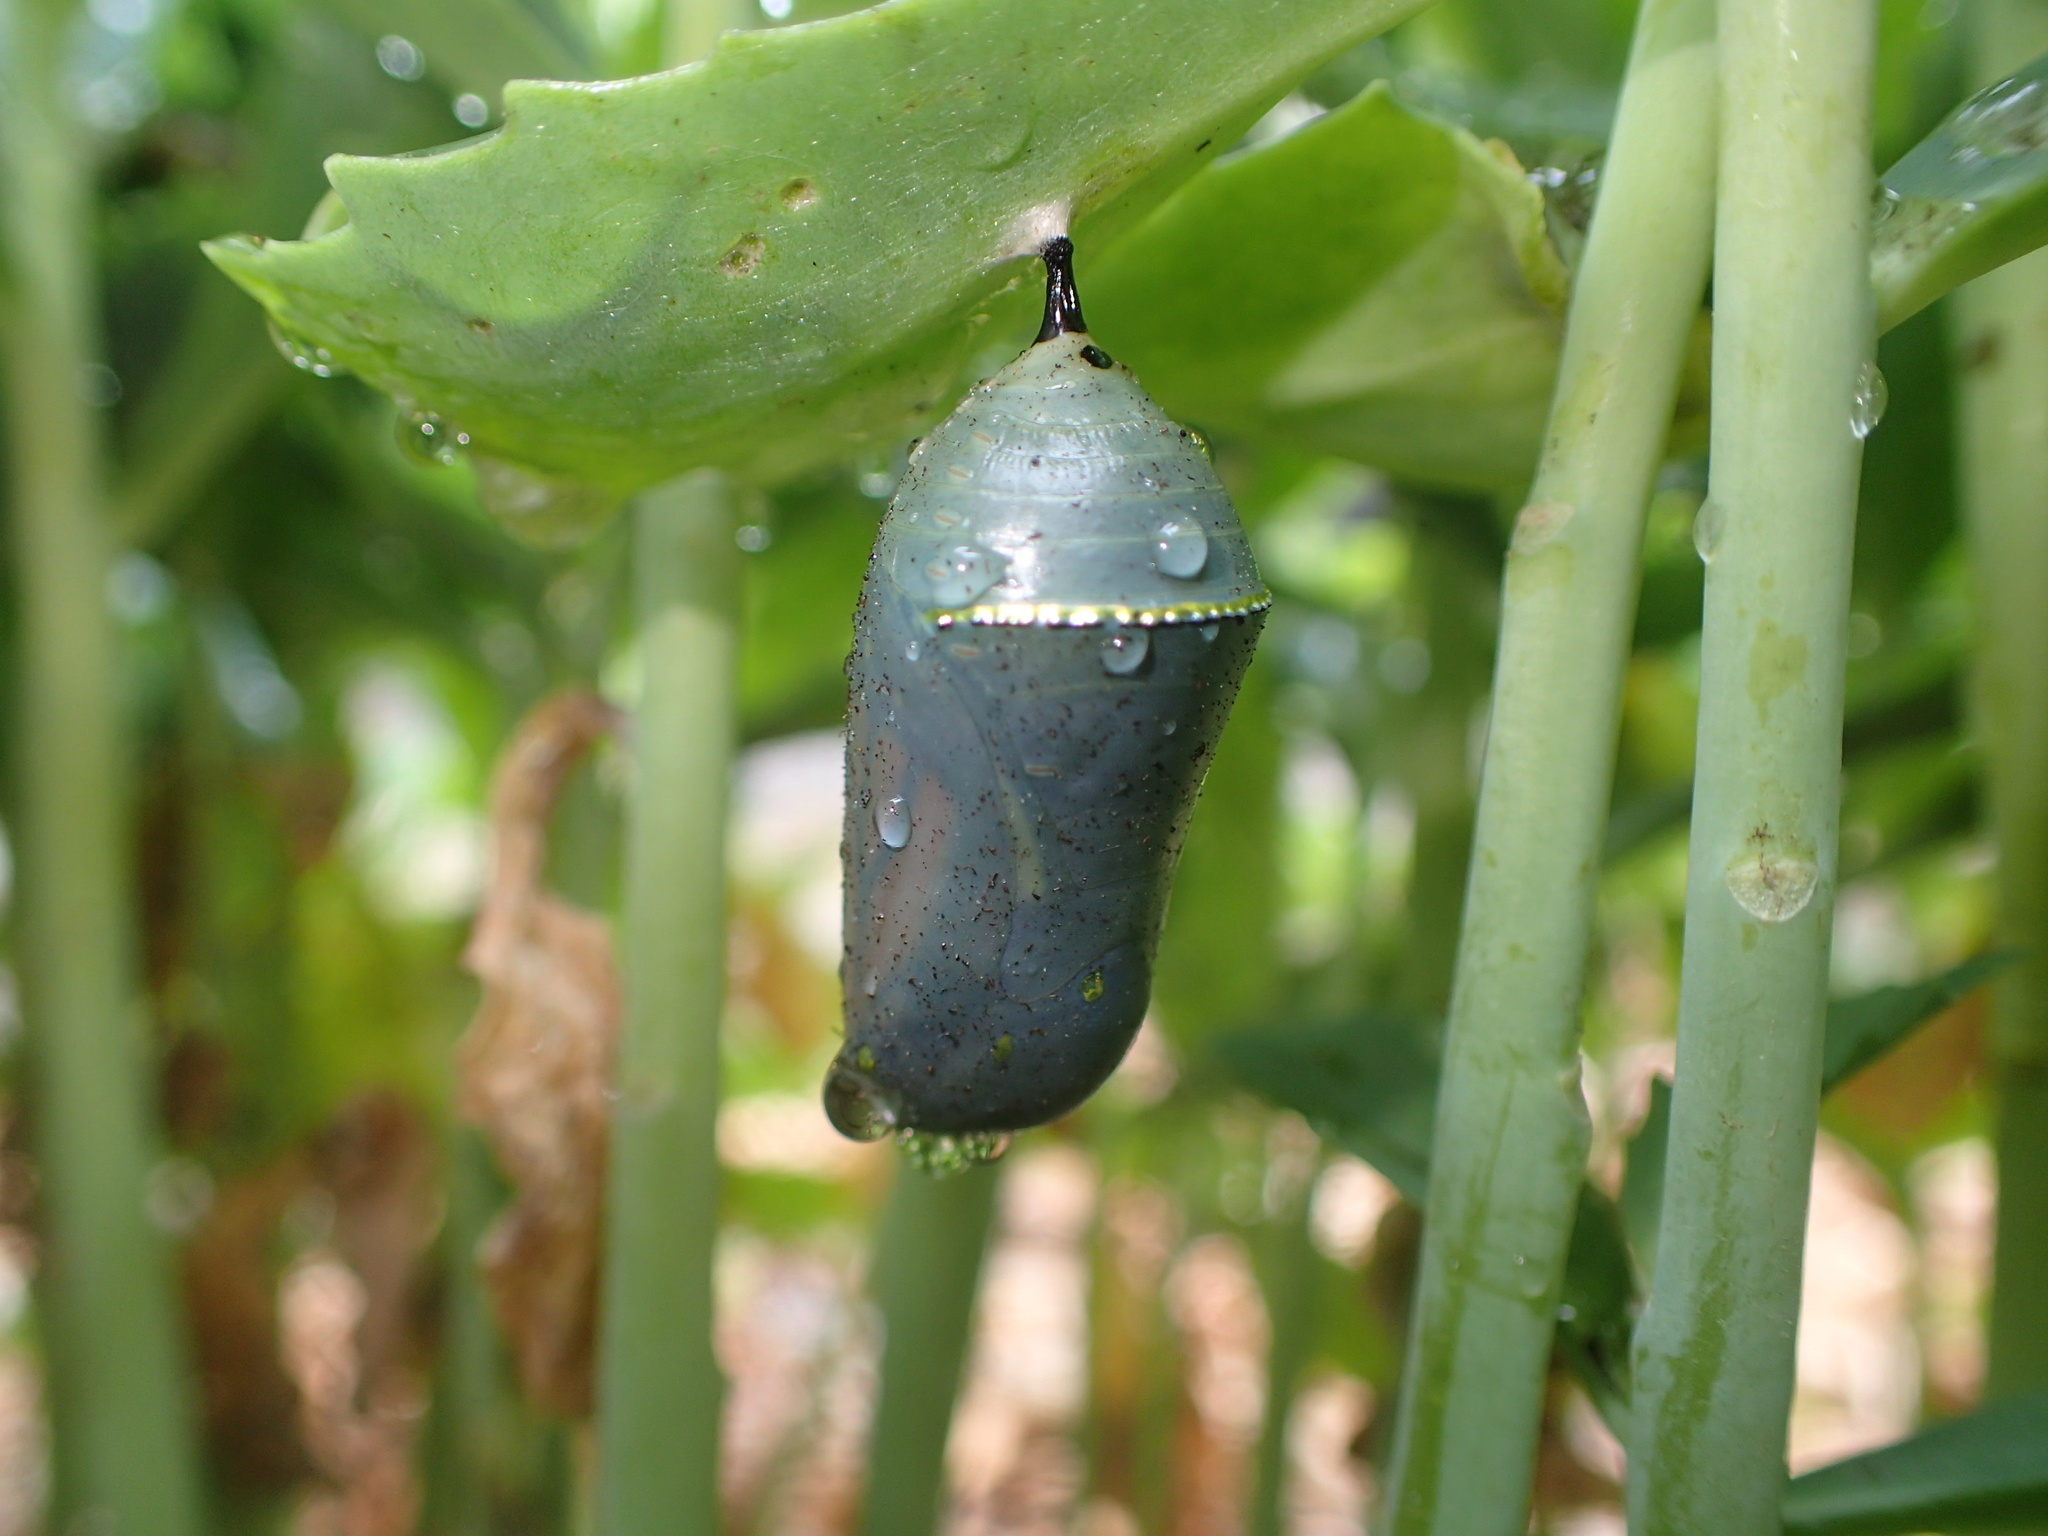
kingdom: Animalia
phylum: Arthropoda
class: Insecta
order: Lepidoptera
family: Nymphalidae
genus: Danaus
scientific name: Danaus plexippus
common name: Monarch
